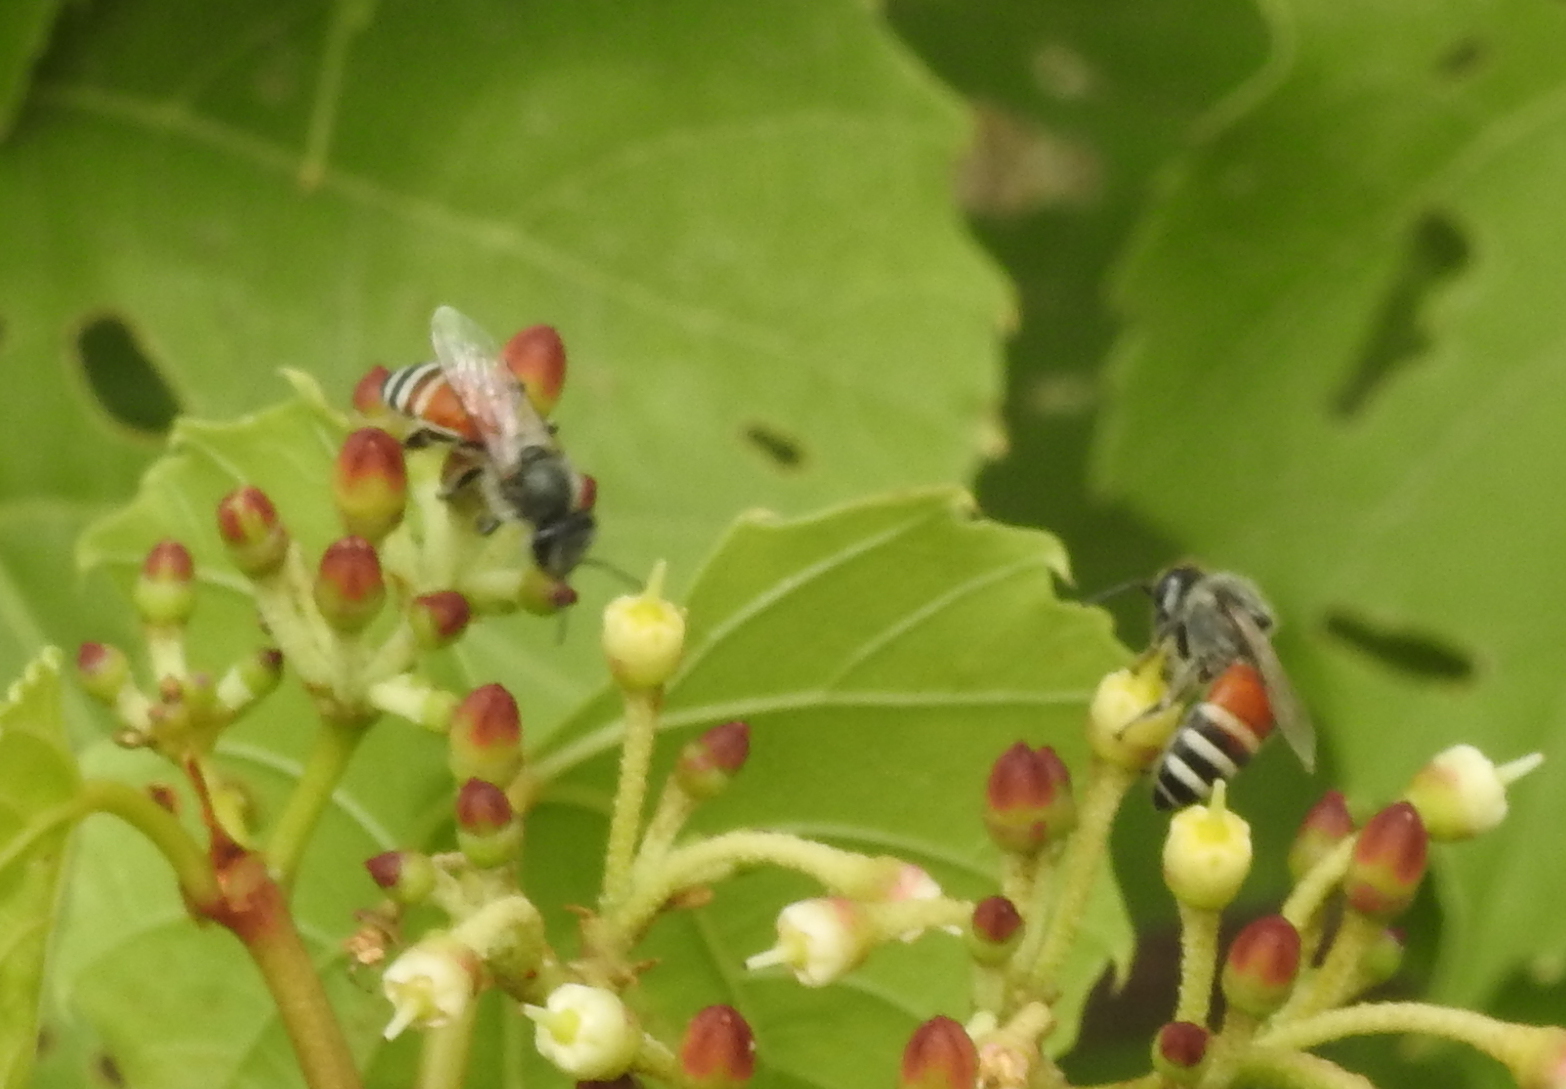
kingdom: Animalia
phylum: Arthropoda
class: Insecta
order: Hymenoptera
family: Apidae
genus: Apis
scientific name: Apis florea
